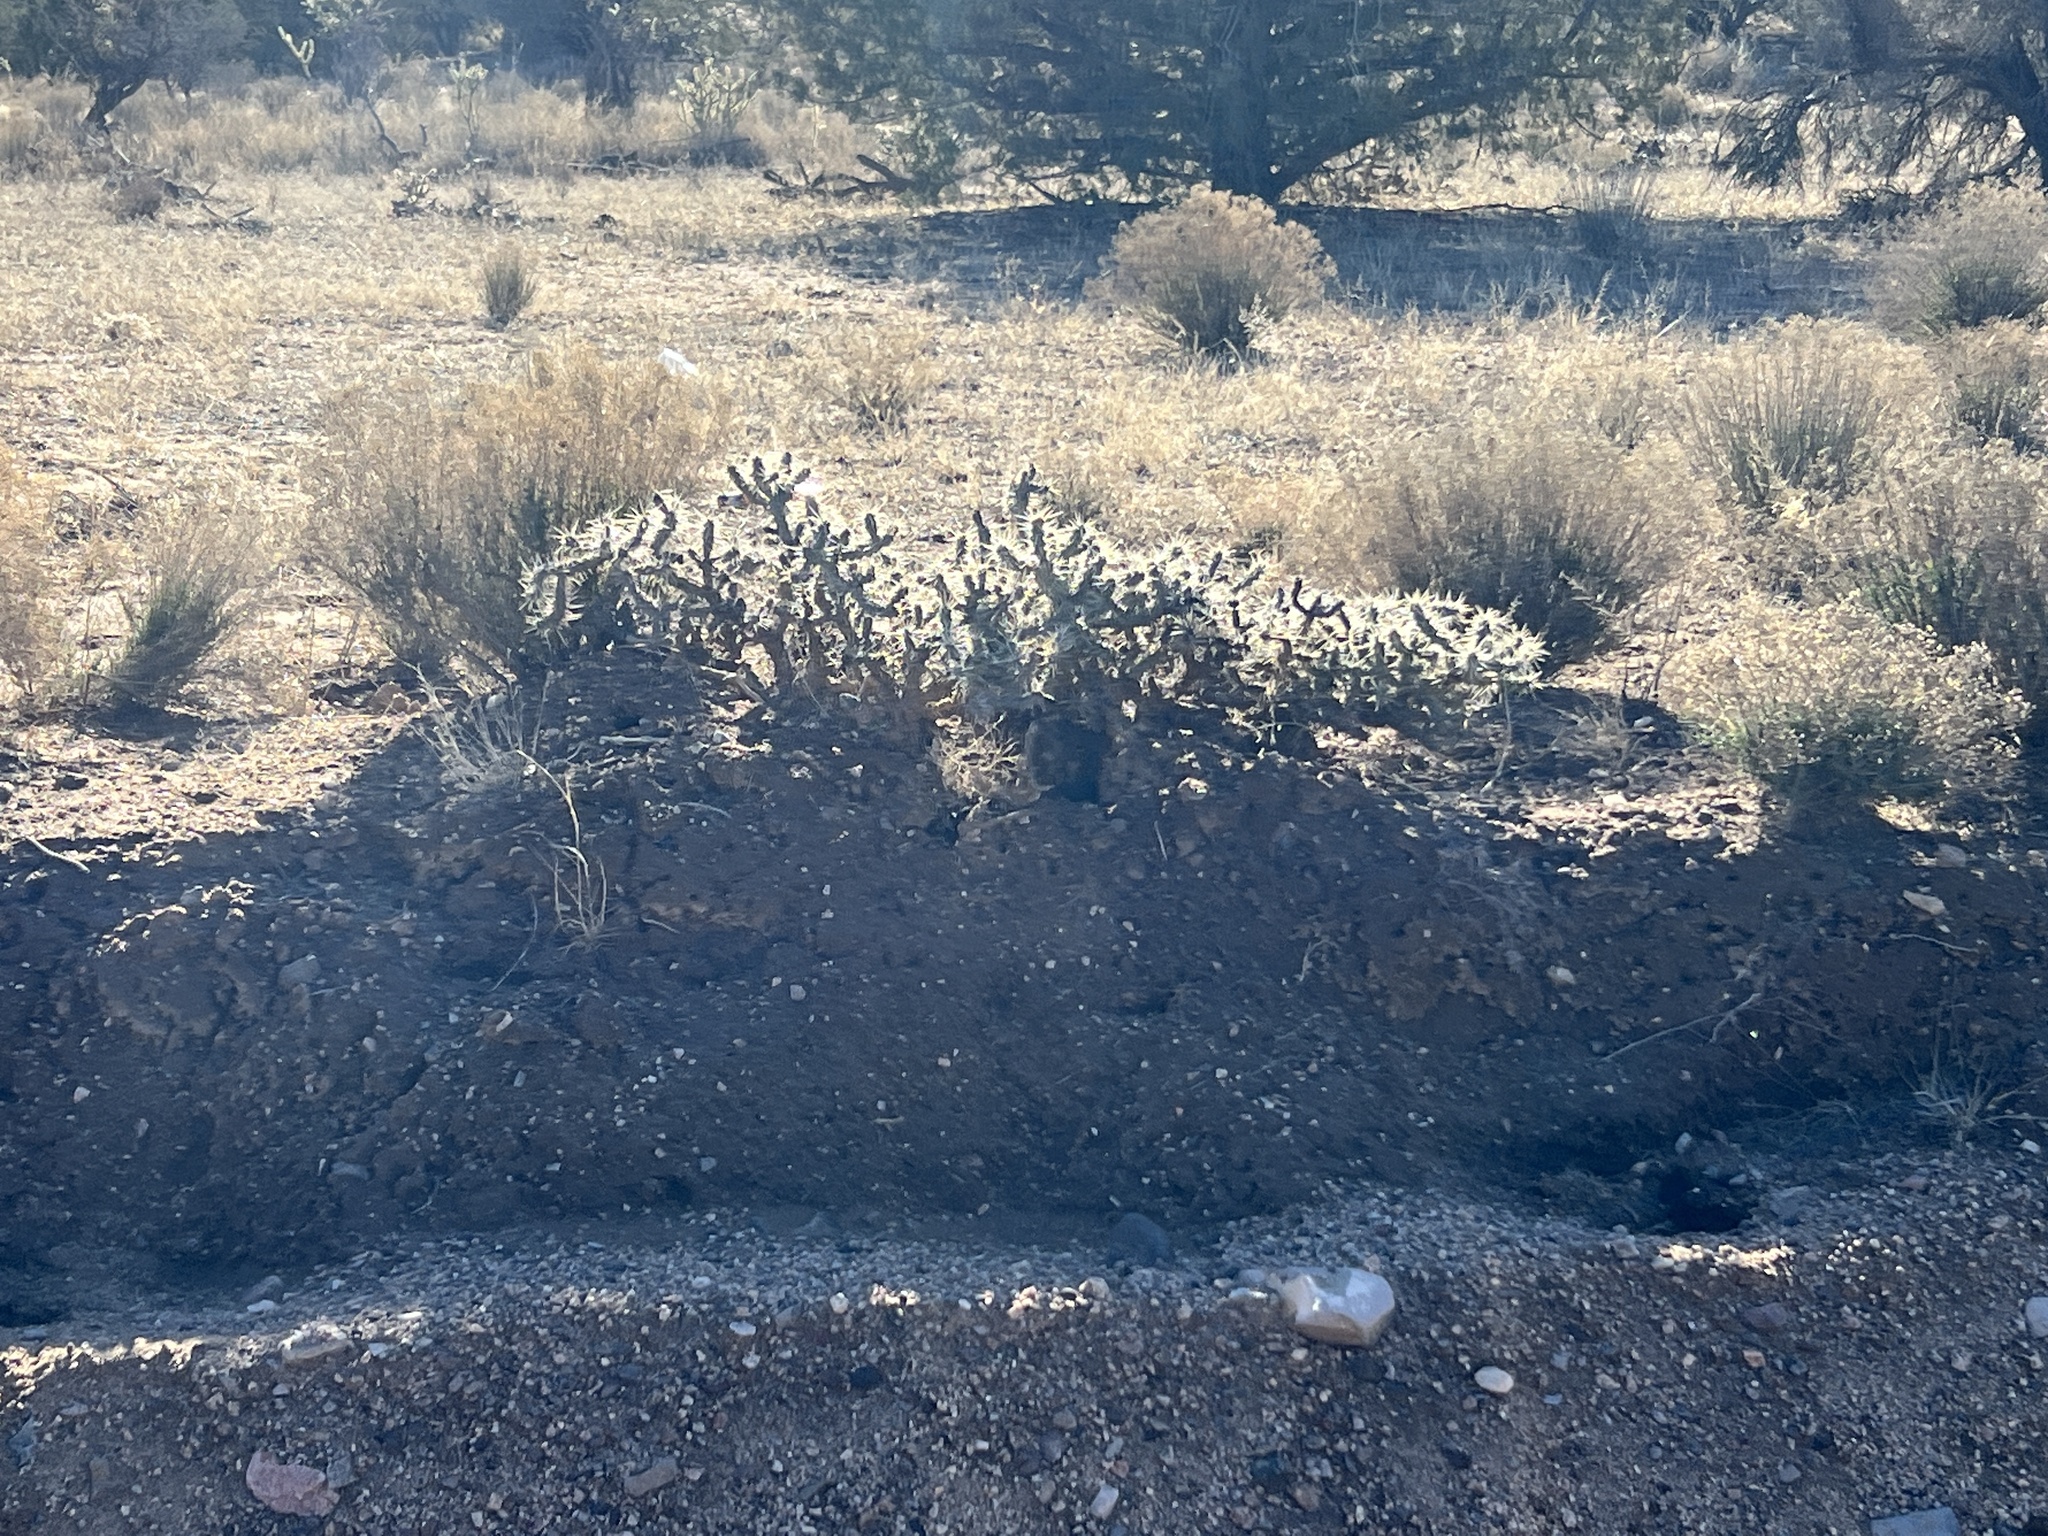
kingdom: Plantae
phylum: Tracheophyta
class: Magnoliopsida
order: Caryophyllales
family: Cactaceae
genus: Cylindropuntia
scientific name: Cylindropuntia whipplei
